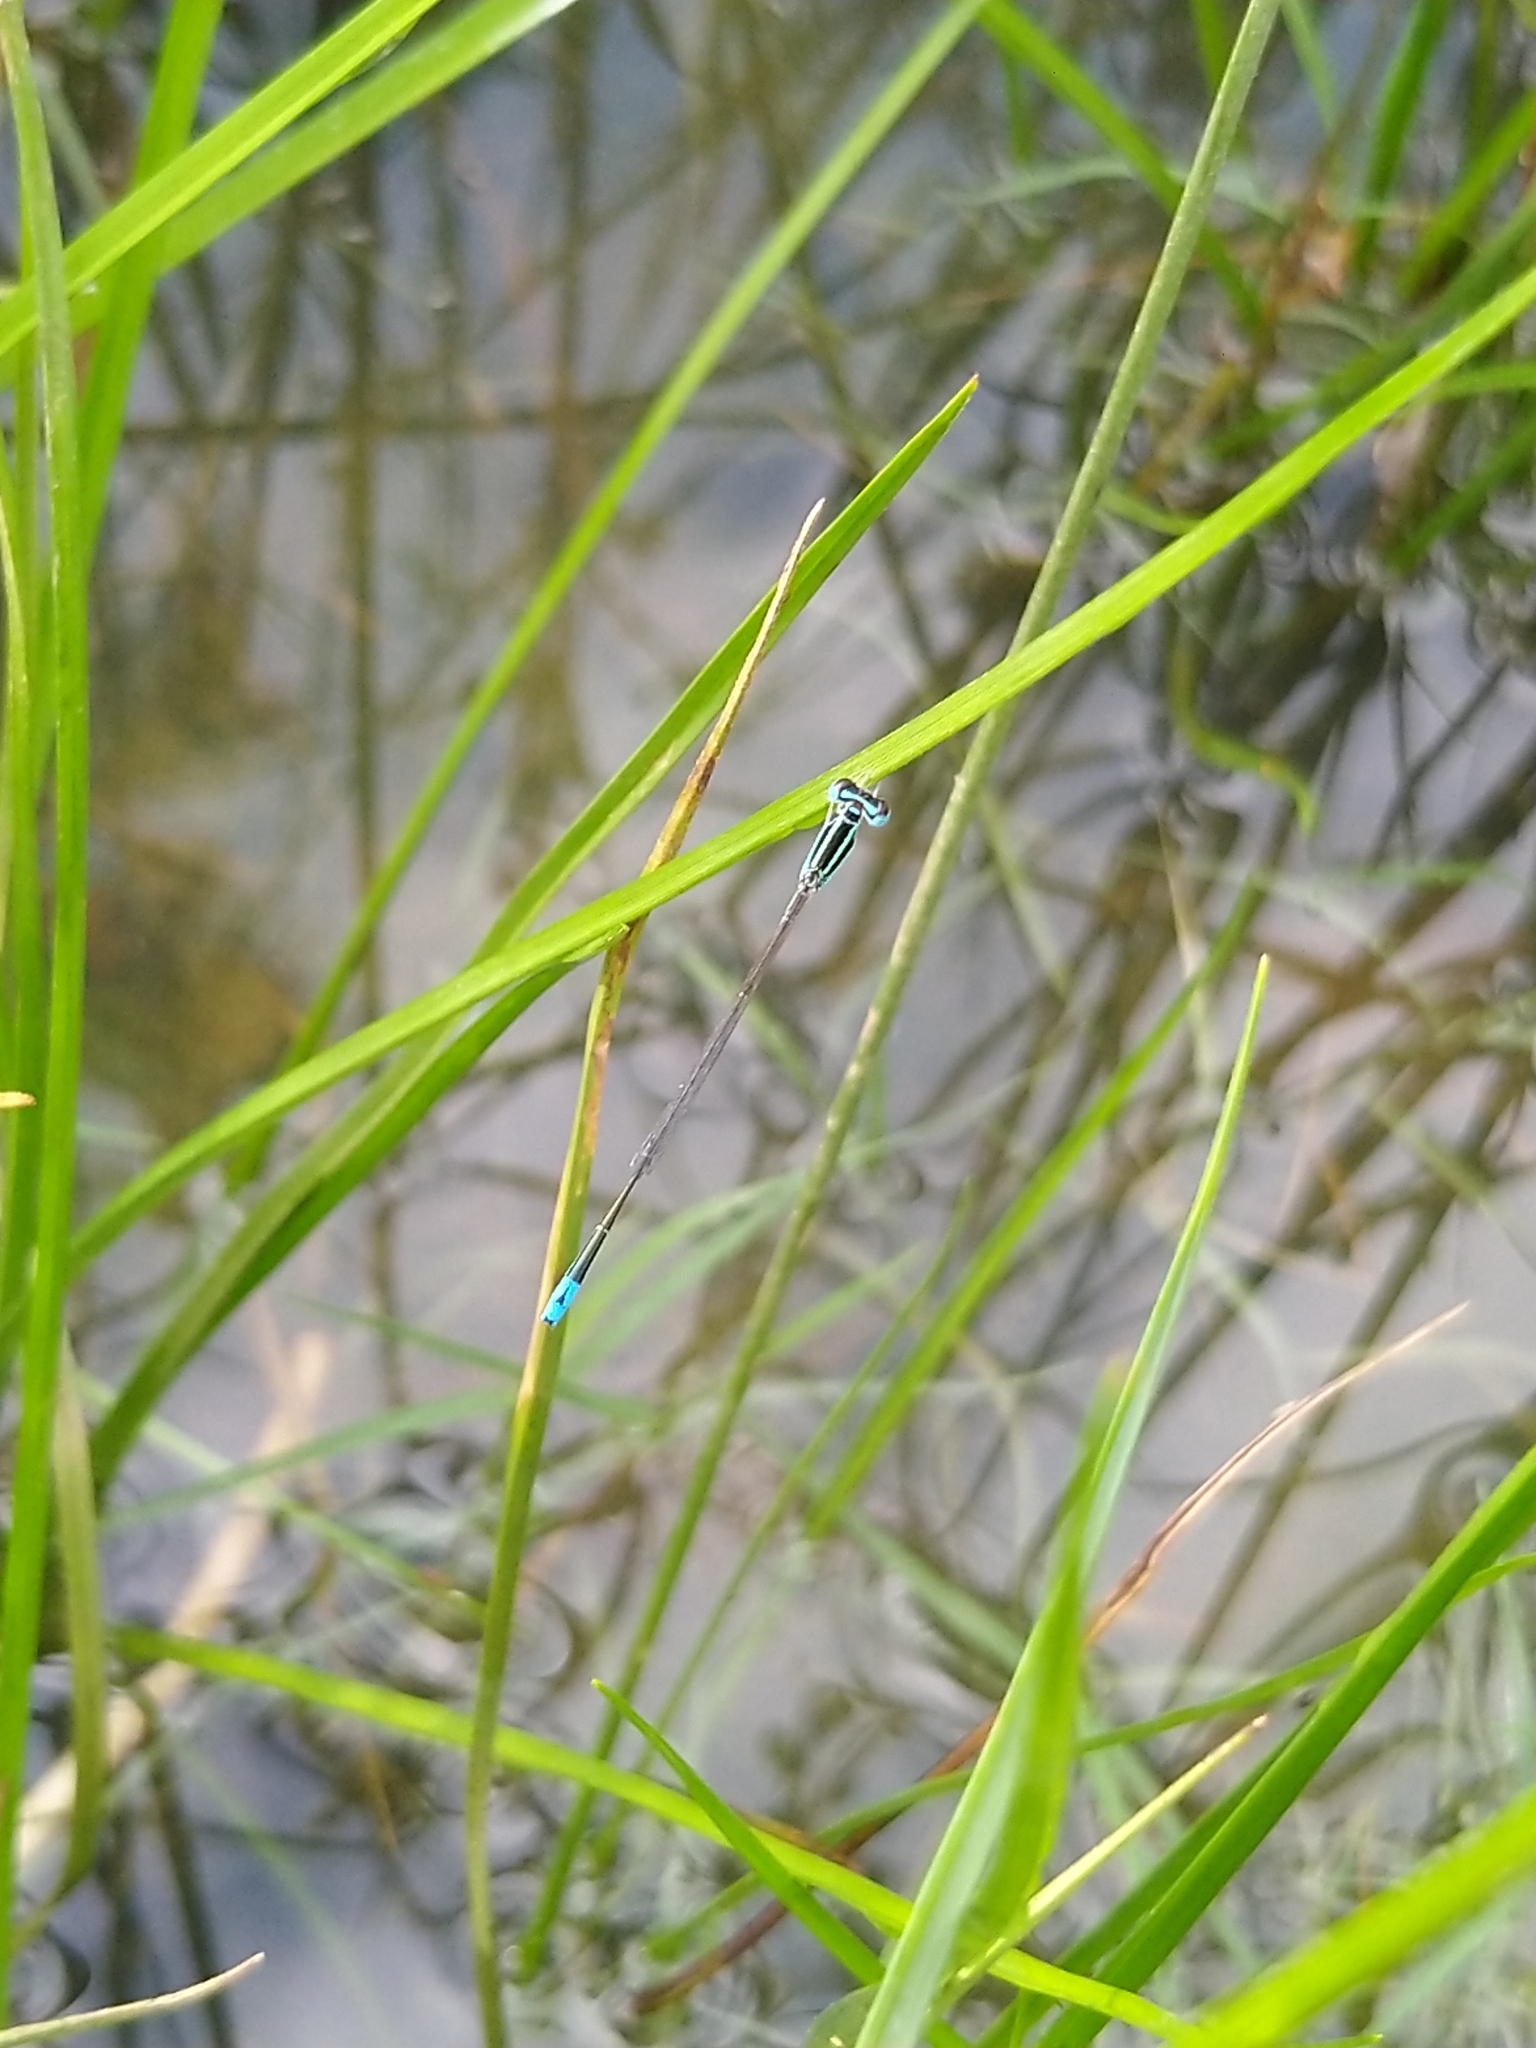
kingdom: Animalia
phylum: Arthropoda
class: Insecta
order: Odonata
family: Coenagrionidae
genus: Aciagrion
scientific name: Aciagrion occidentale
